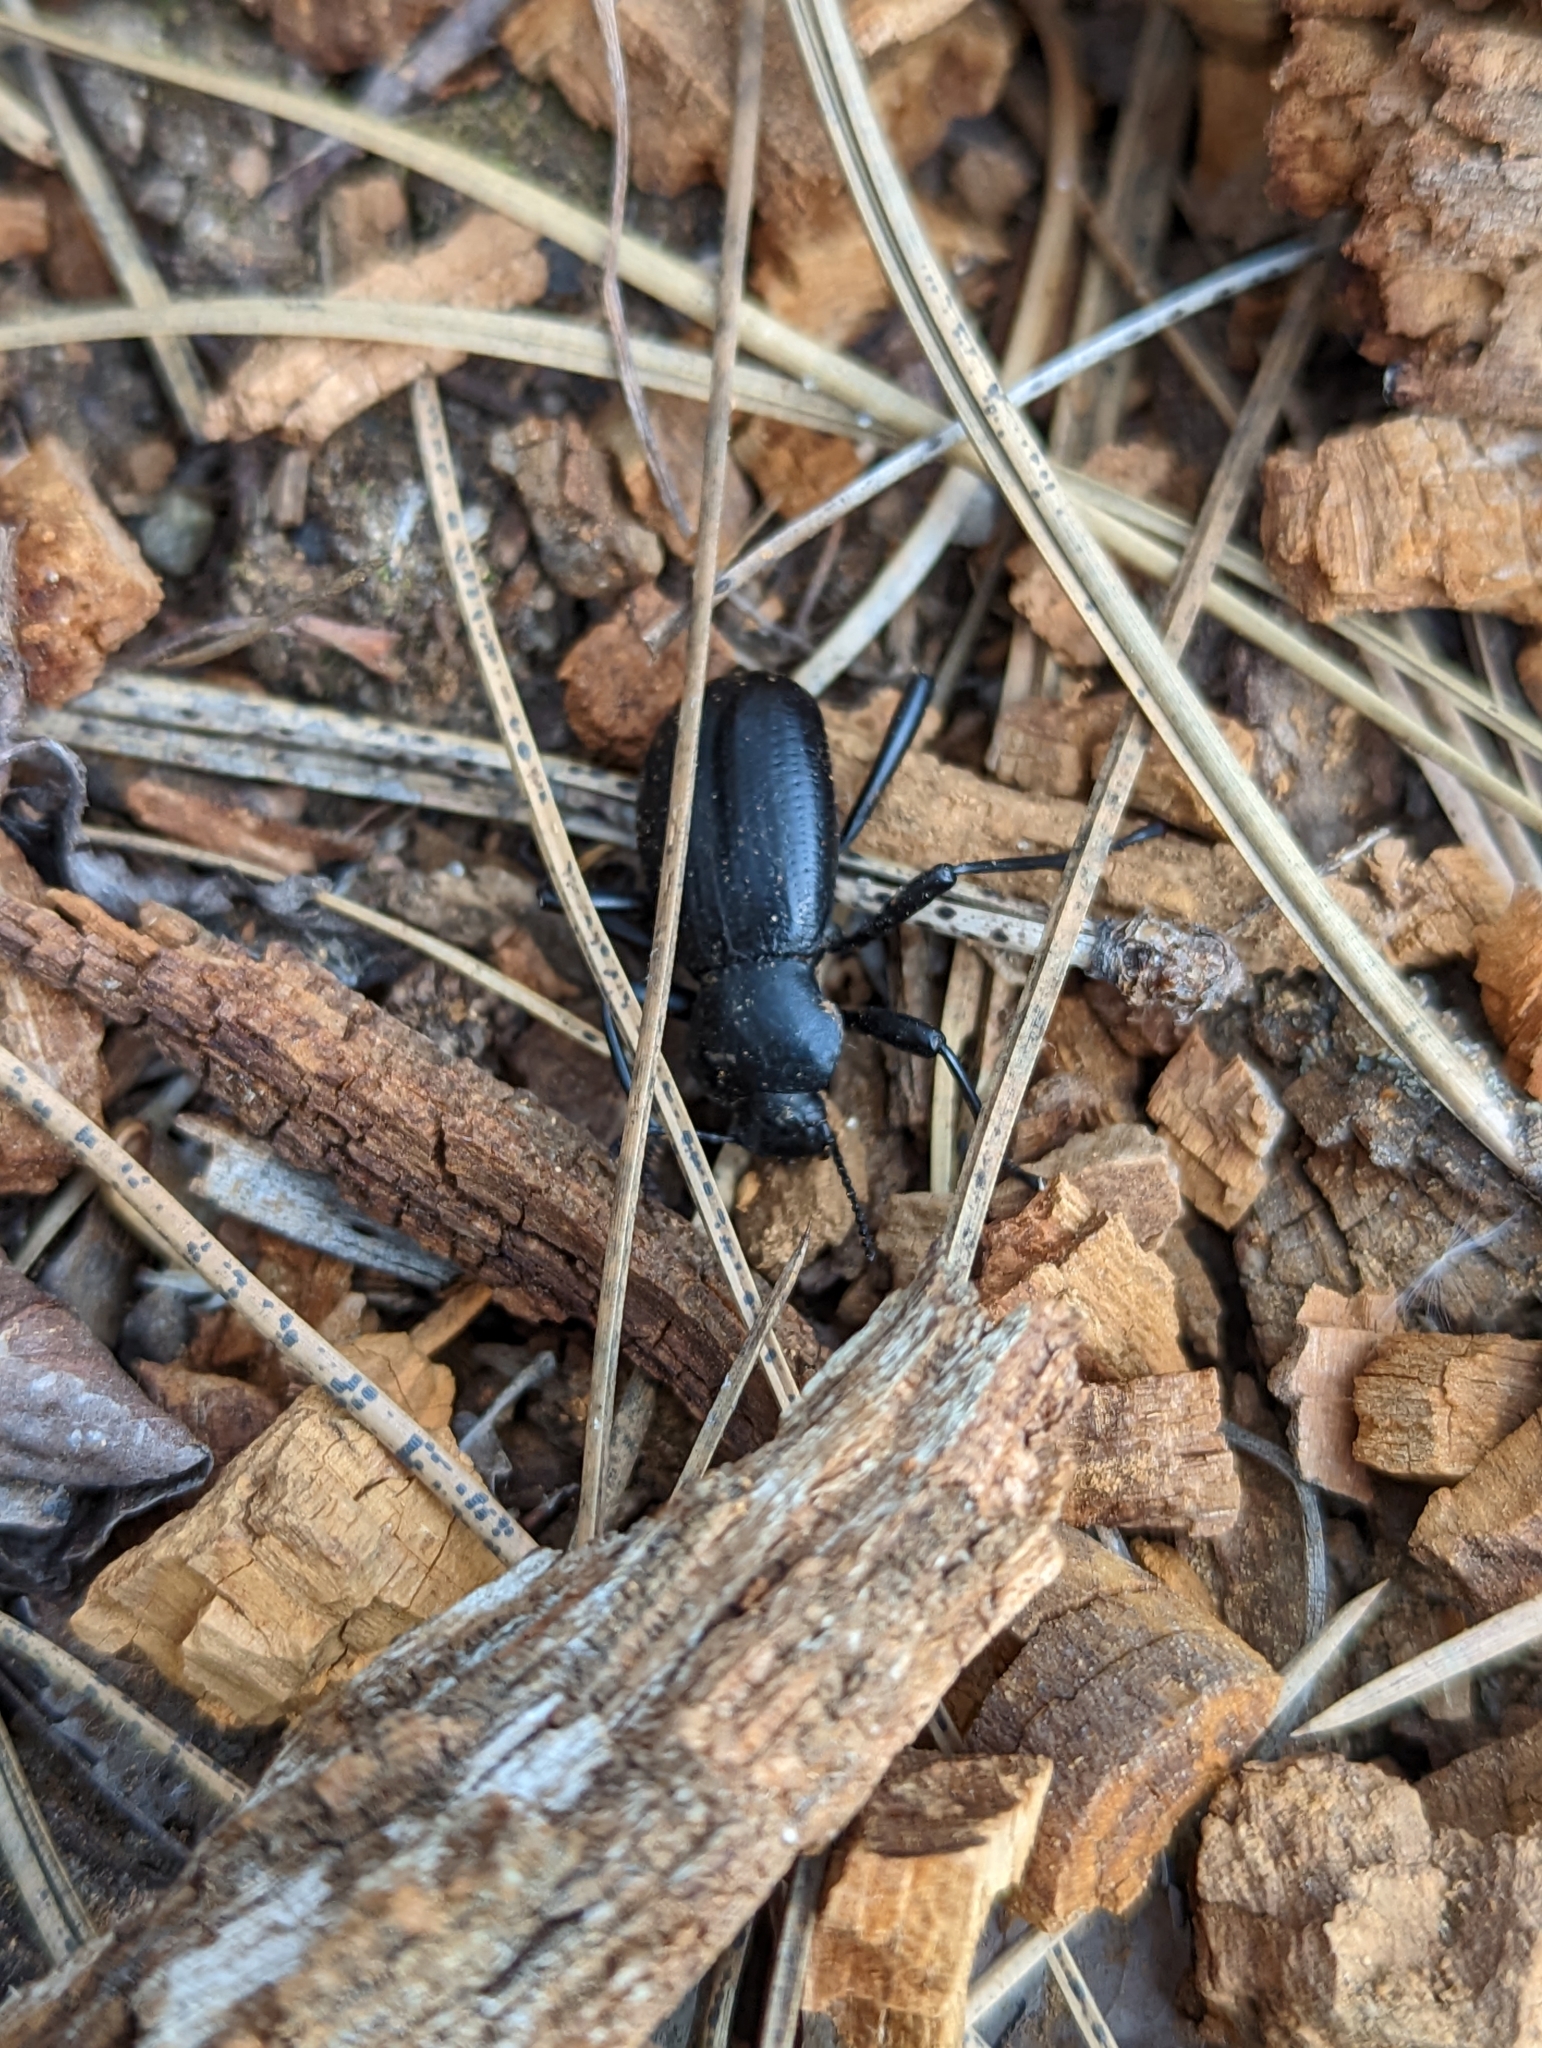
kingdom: Animalia
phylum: Arthropoda
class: Insecta
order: Coleoptera
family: Tenebrionidae
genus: Coelocnemis
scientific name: Coelocnemis dilaticollis
